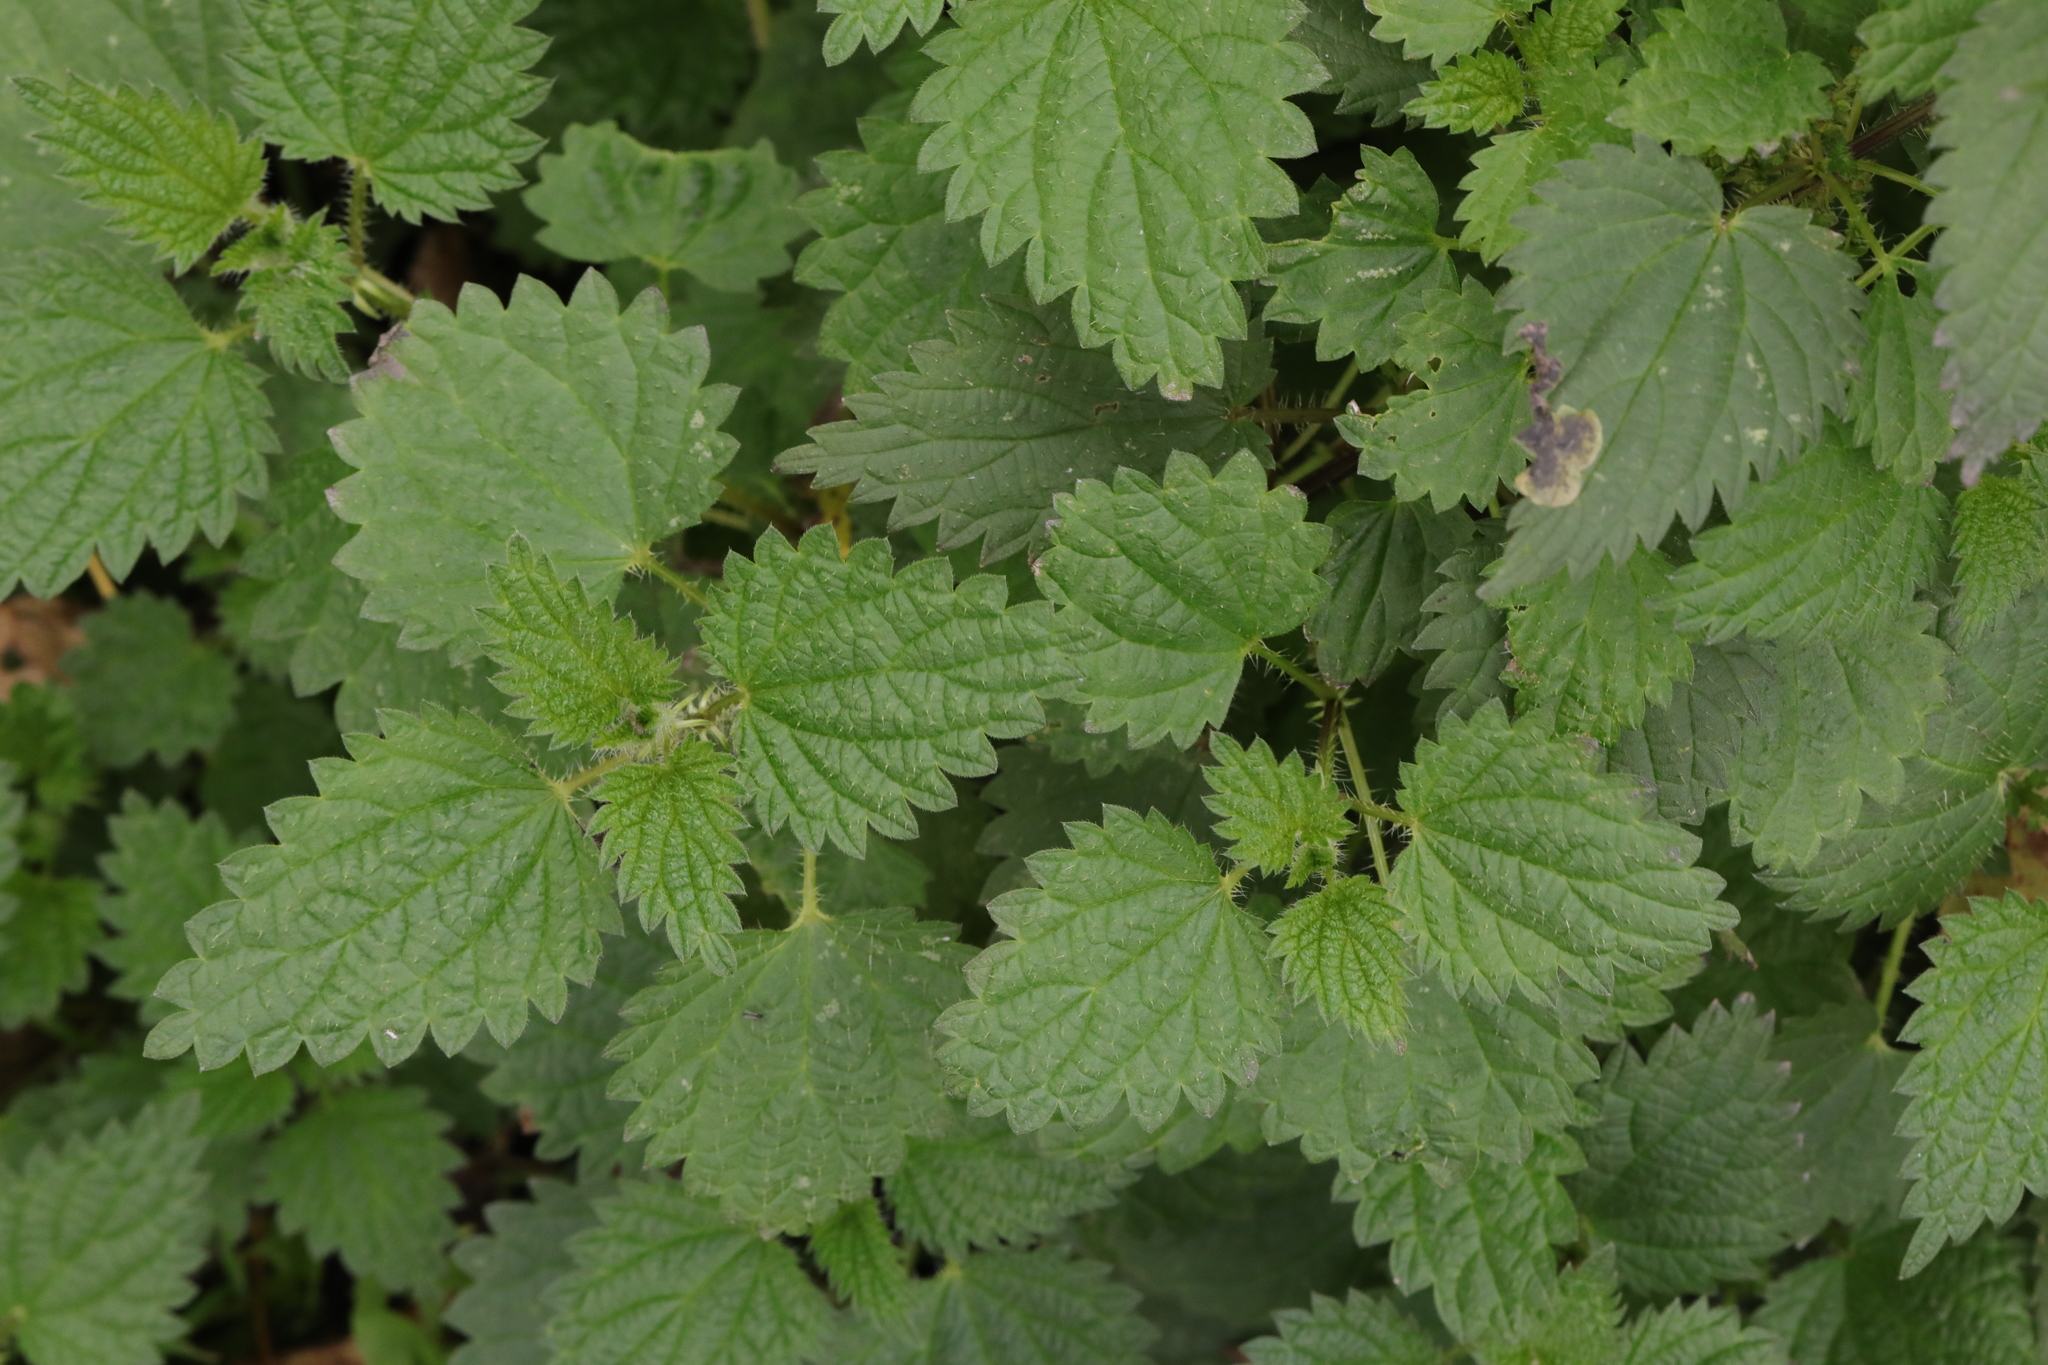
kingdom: Plantae
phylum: Tracheophyta
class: Magnoliopsida
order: Rosales
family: Urticaceae
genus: Urtica
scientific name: Urtica dioica
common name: Common nettle
